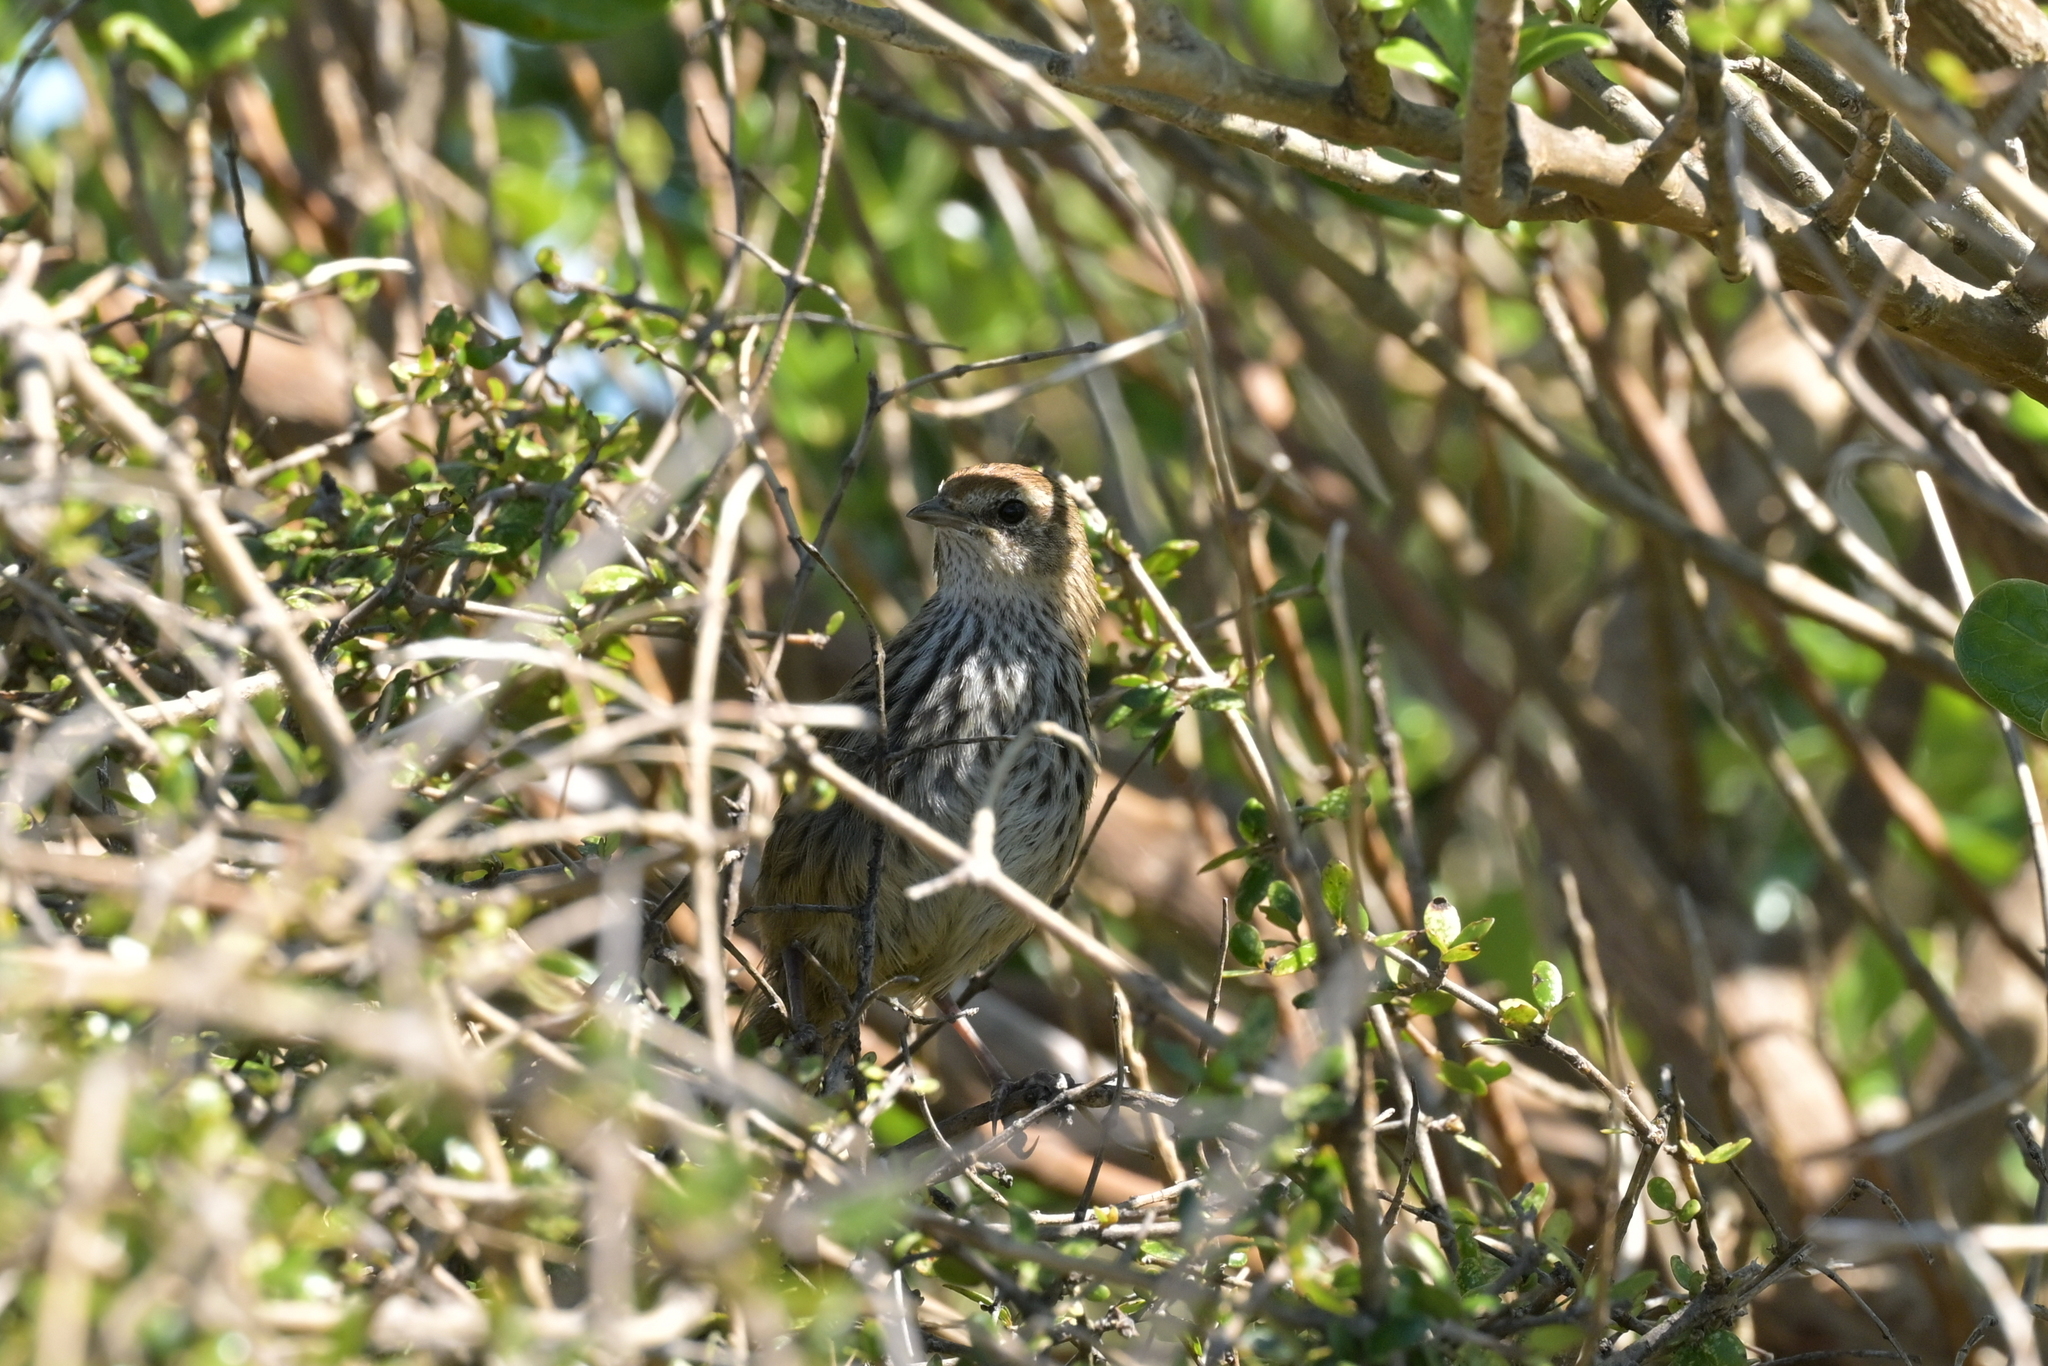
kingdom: Animalia
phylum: Chordata
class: Aves
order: Passeriformes
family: Locustellidae
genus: Megalurus
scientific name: Megalurus punctatus
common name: New zealand fernbird
